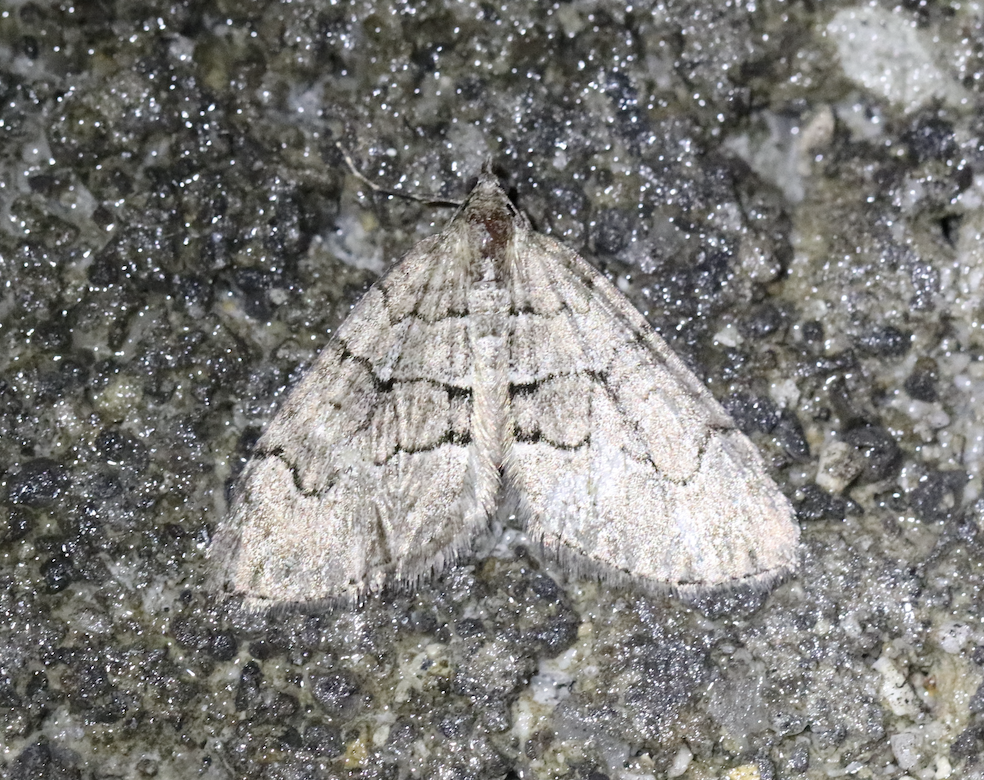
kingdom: Animalia
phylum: Arthropoda
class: Insecta
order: Lepidoptera
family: Geometridae
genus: Thera
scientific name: Thera cognata
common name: Chestnut-coloured carpet
